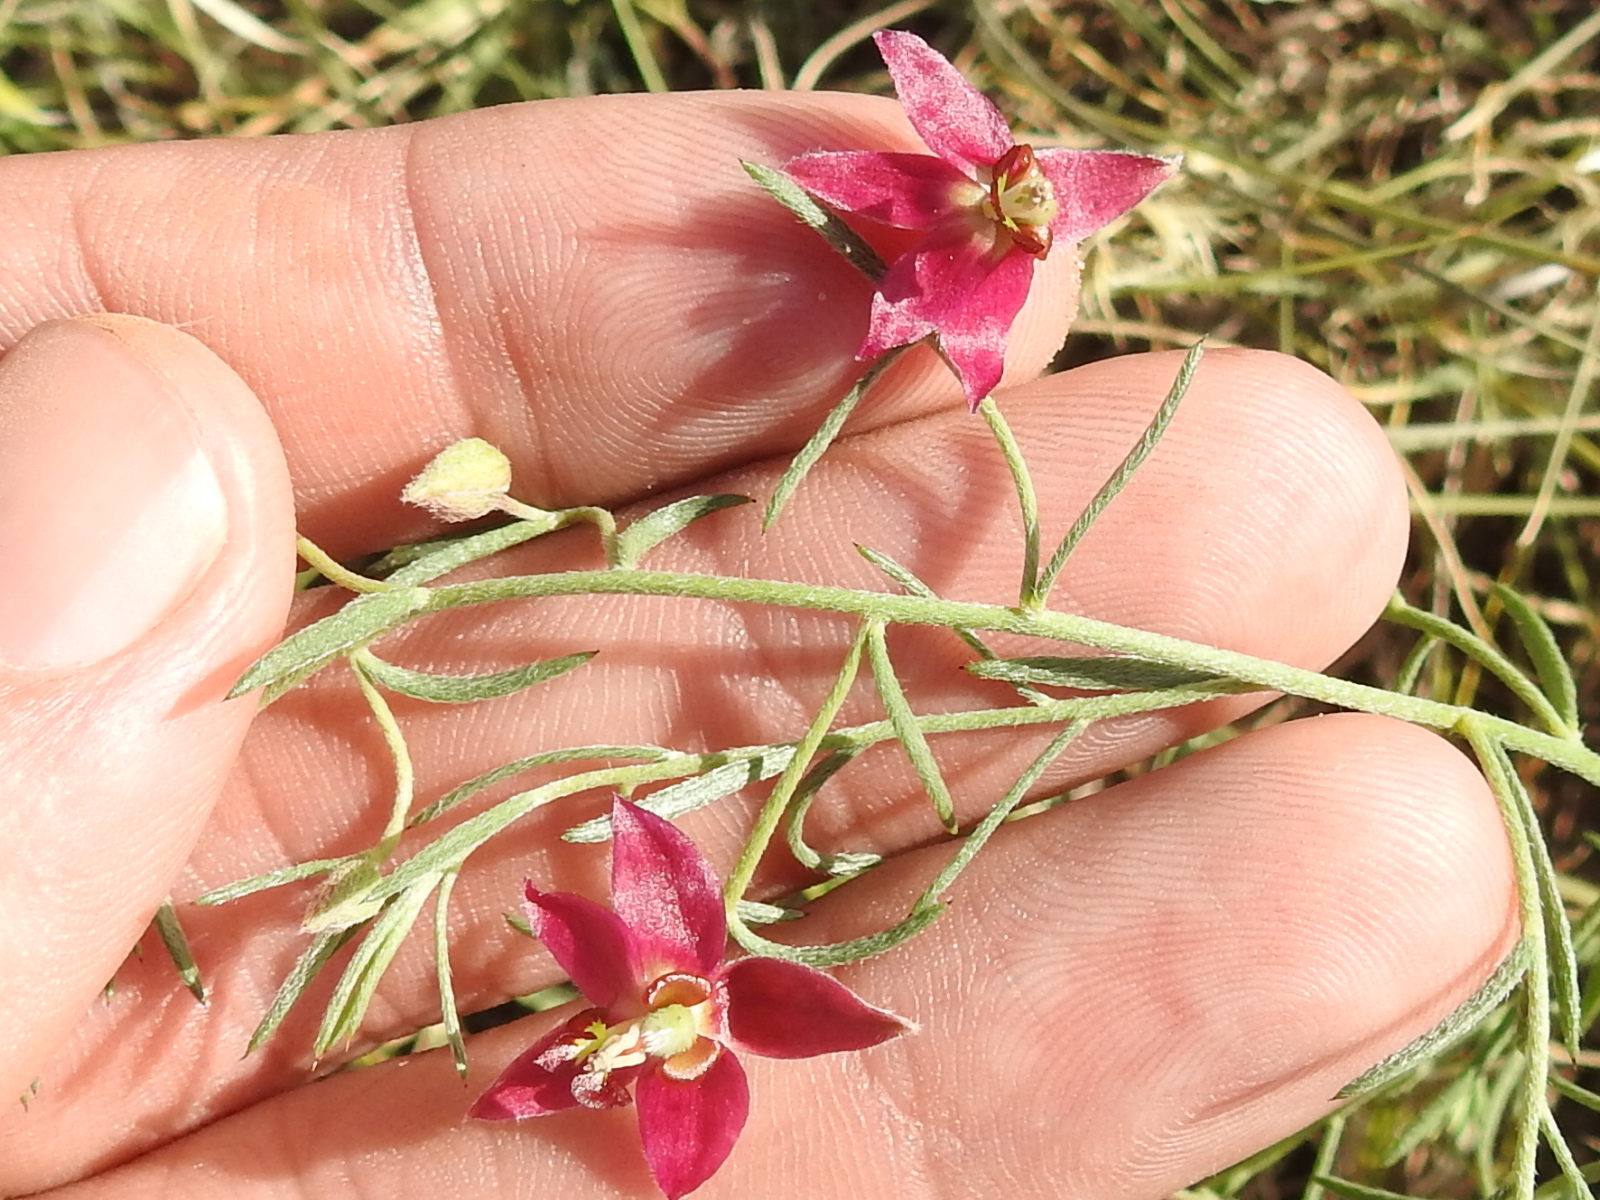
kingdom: Plantae
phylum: Tracheophyta
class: Magnoliopsida
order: Zygophyllales
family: Krameriaceae
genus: Krameria
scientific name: Krameria lanceolata
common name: Ratany
